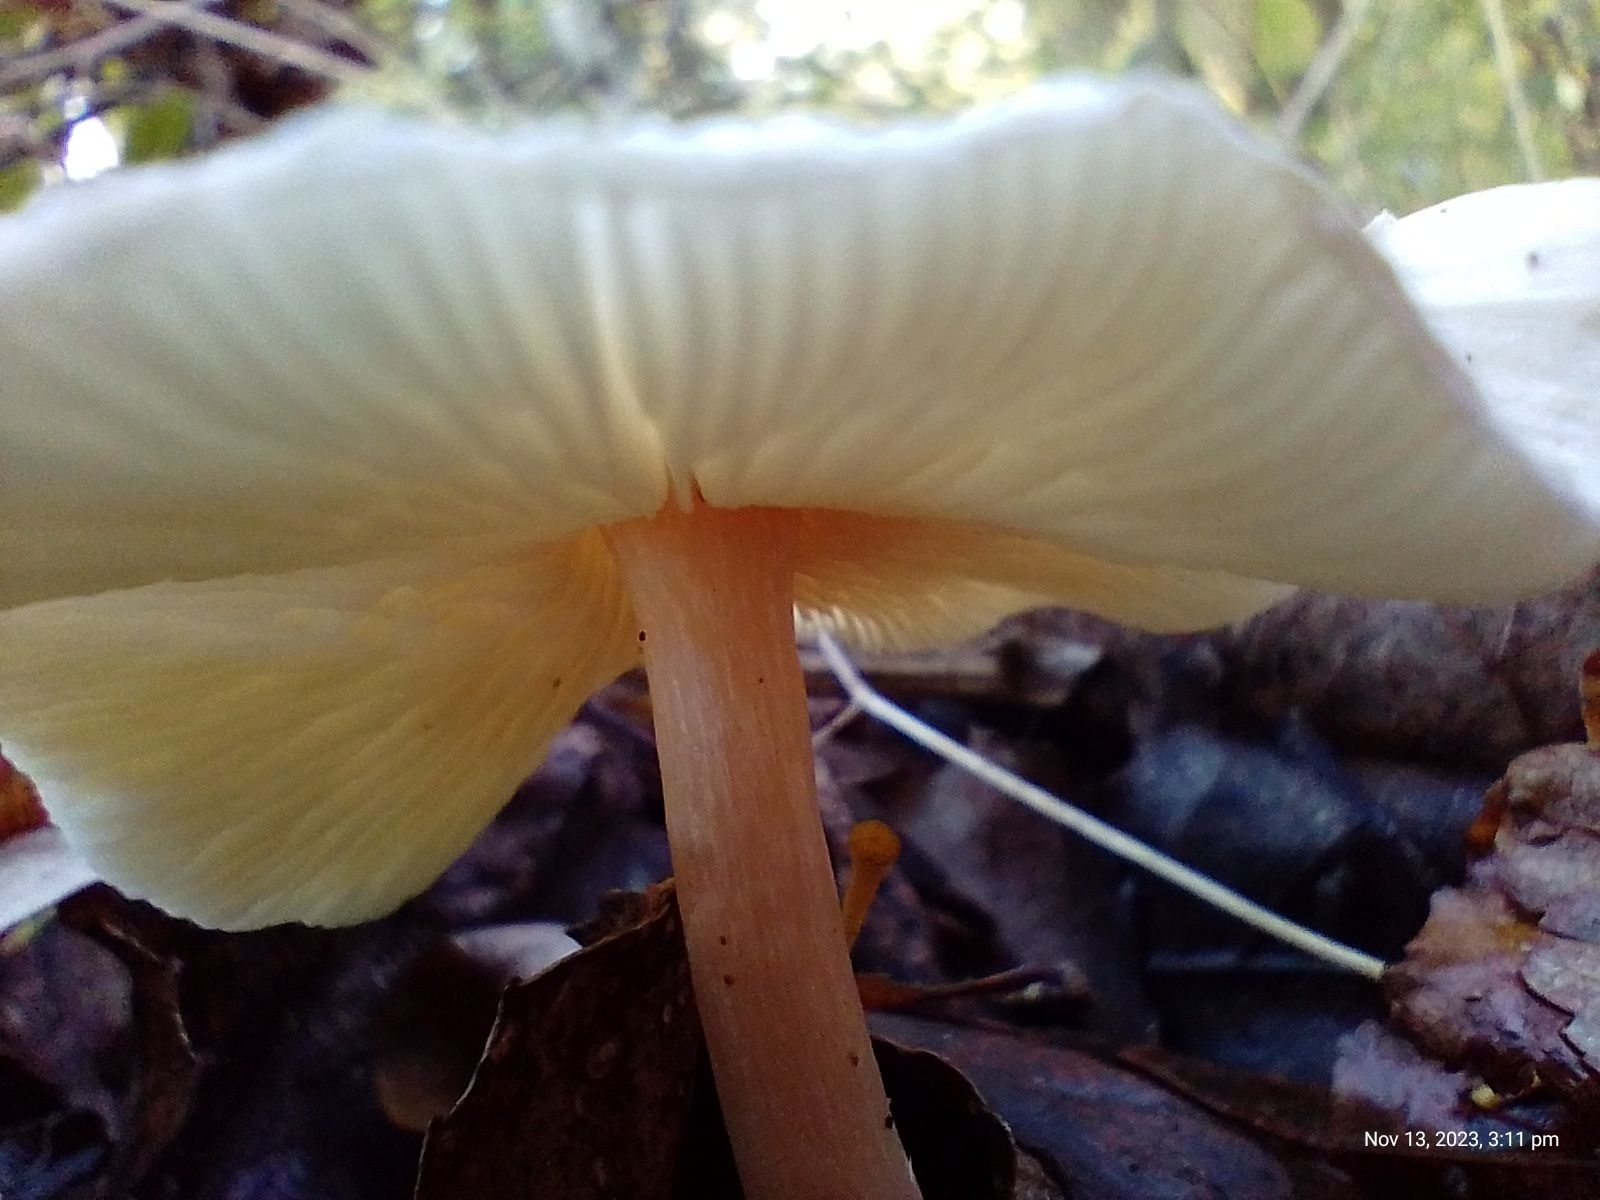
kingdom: Fungi
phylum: Basidiomycota
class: Agaricomycetes
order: Agaricales
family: Agaricaceae
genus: Lepiota
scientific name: Lepiota cristata
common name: Stinking dapperling
